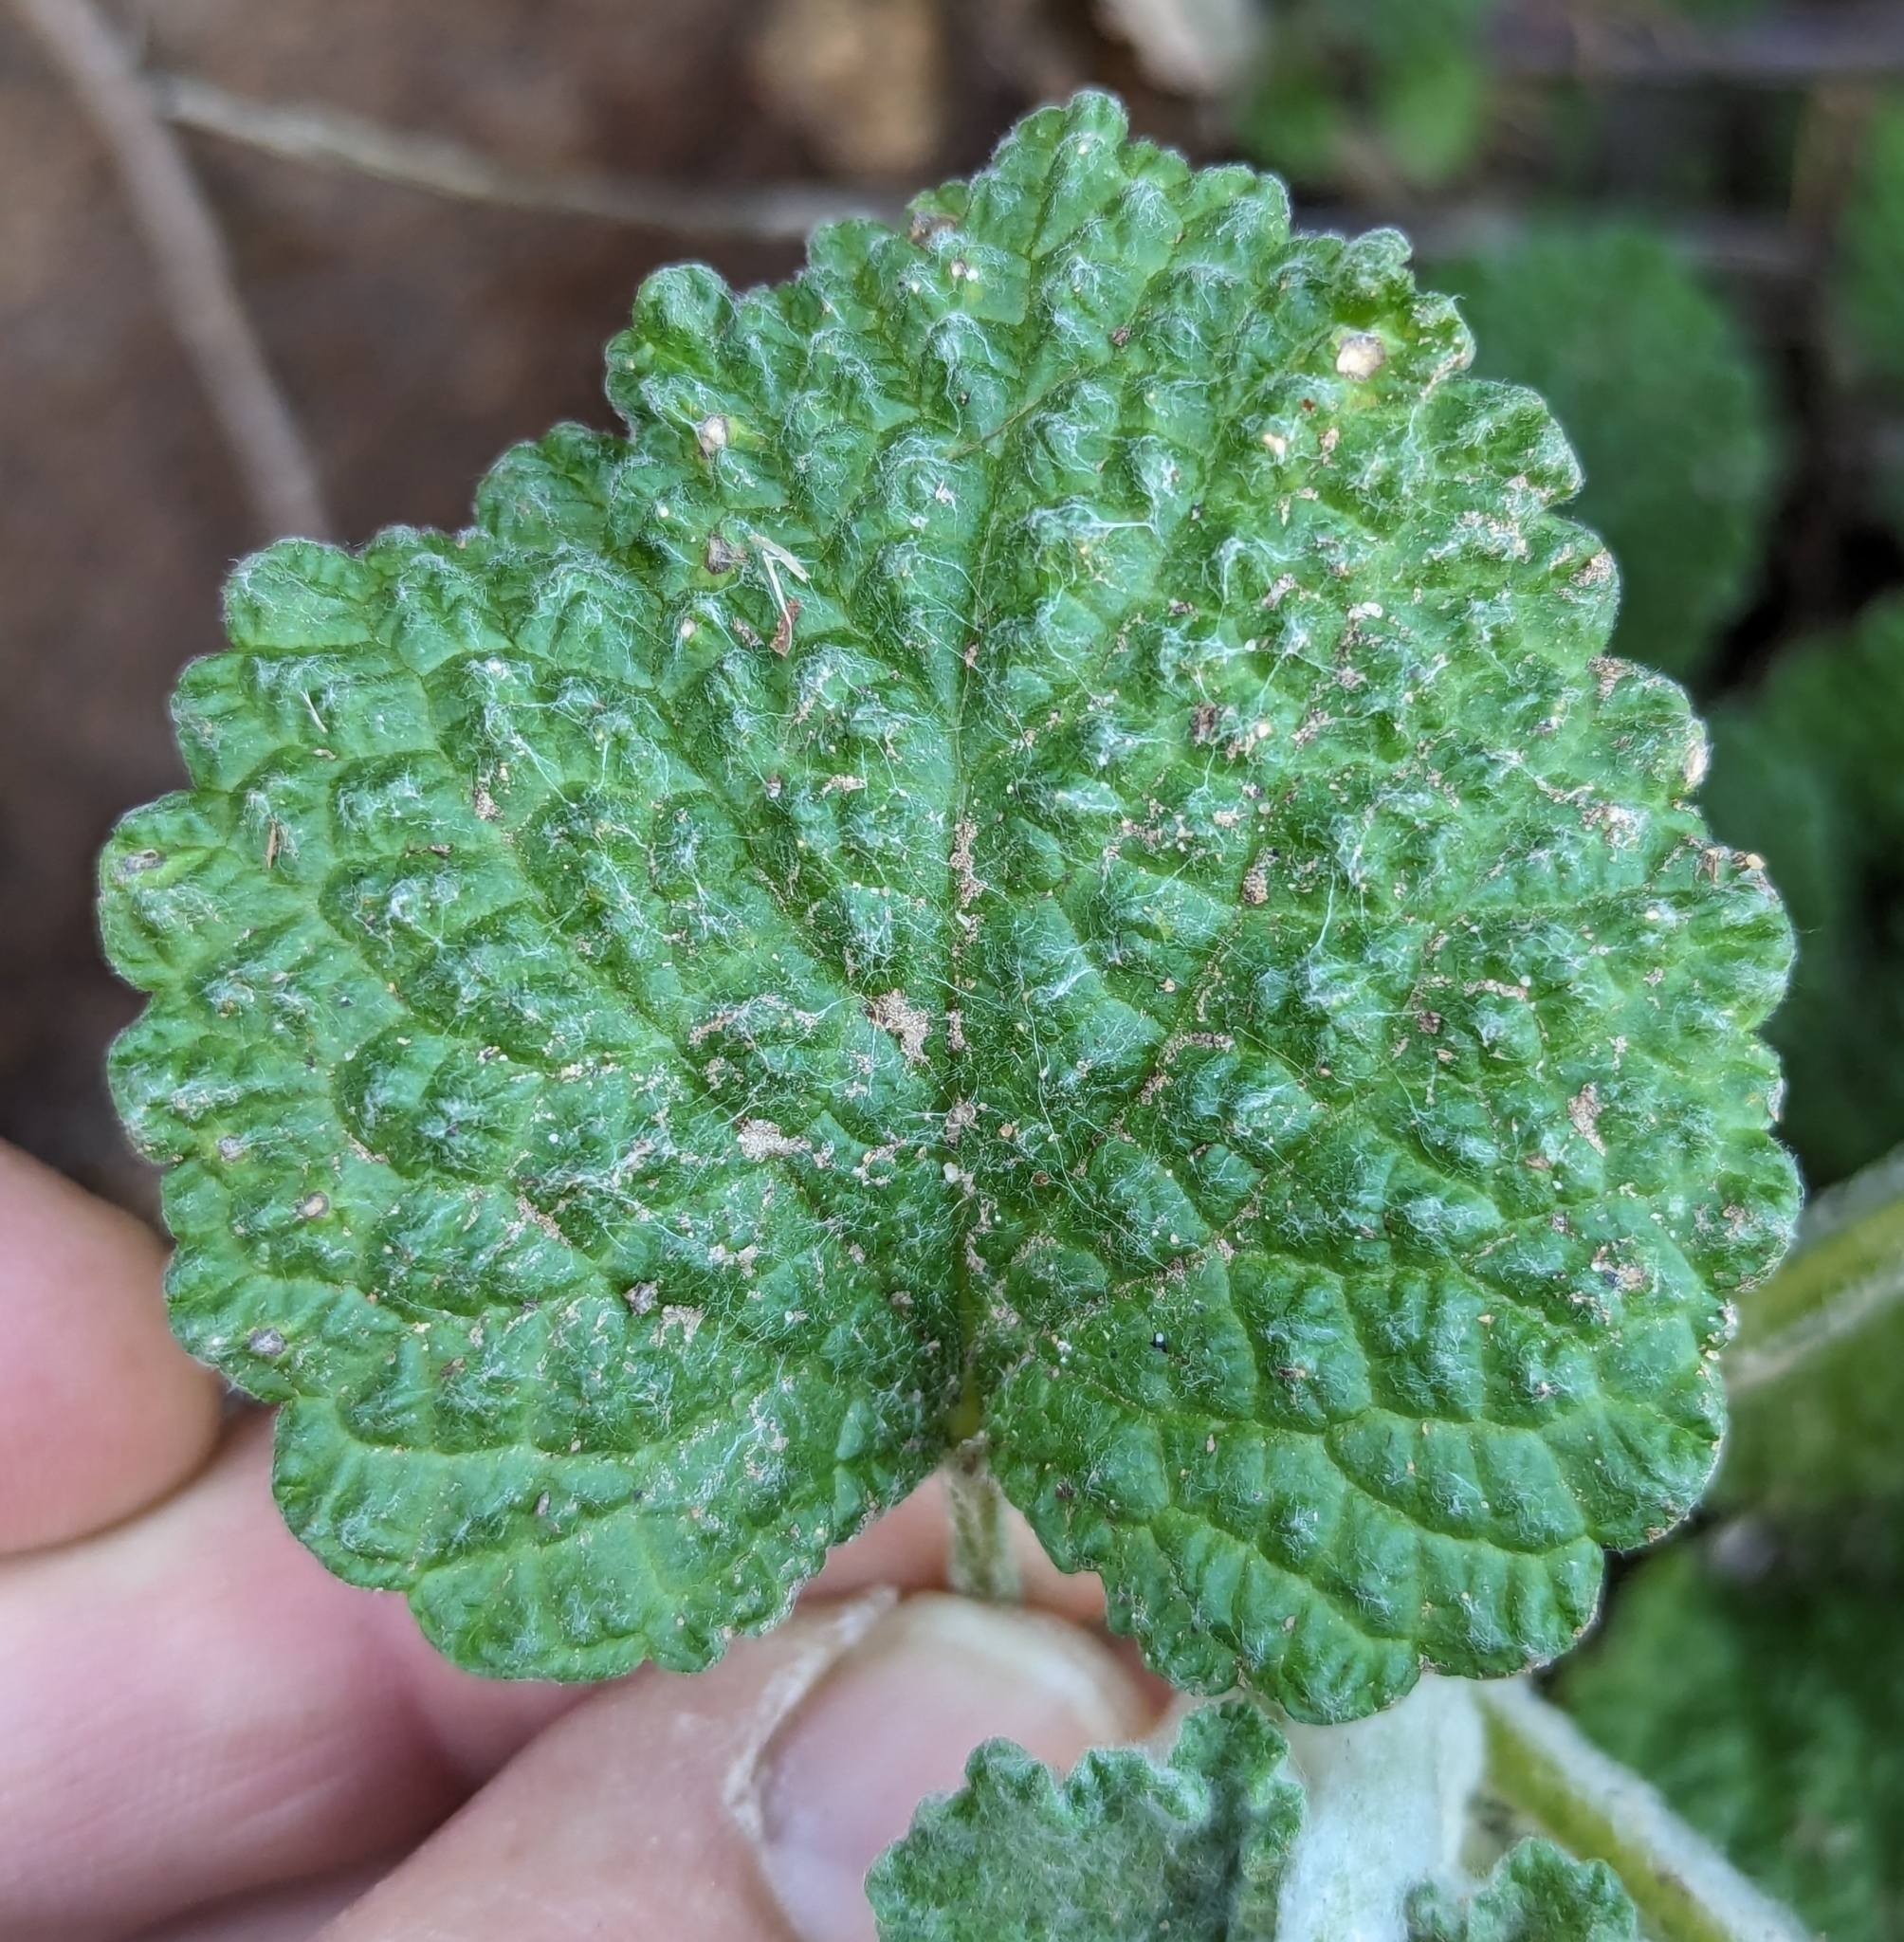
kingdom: Plantae
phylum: Tracheophyta
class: Magnoliopsida
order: Lamiales
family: Lamiaceae
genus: Marrubium
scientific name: Marrubium vulgare
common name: Horehound
